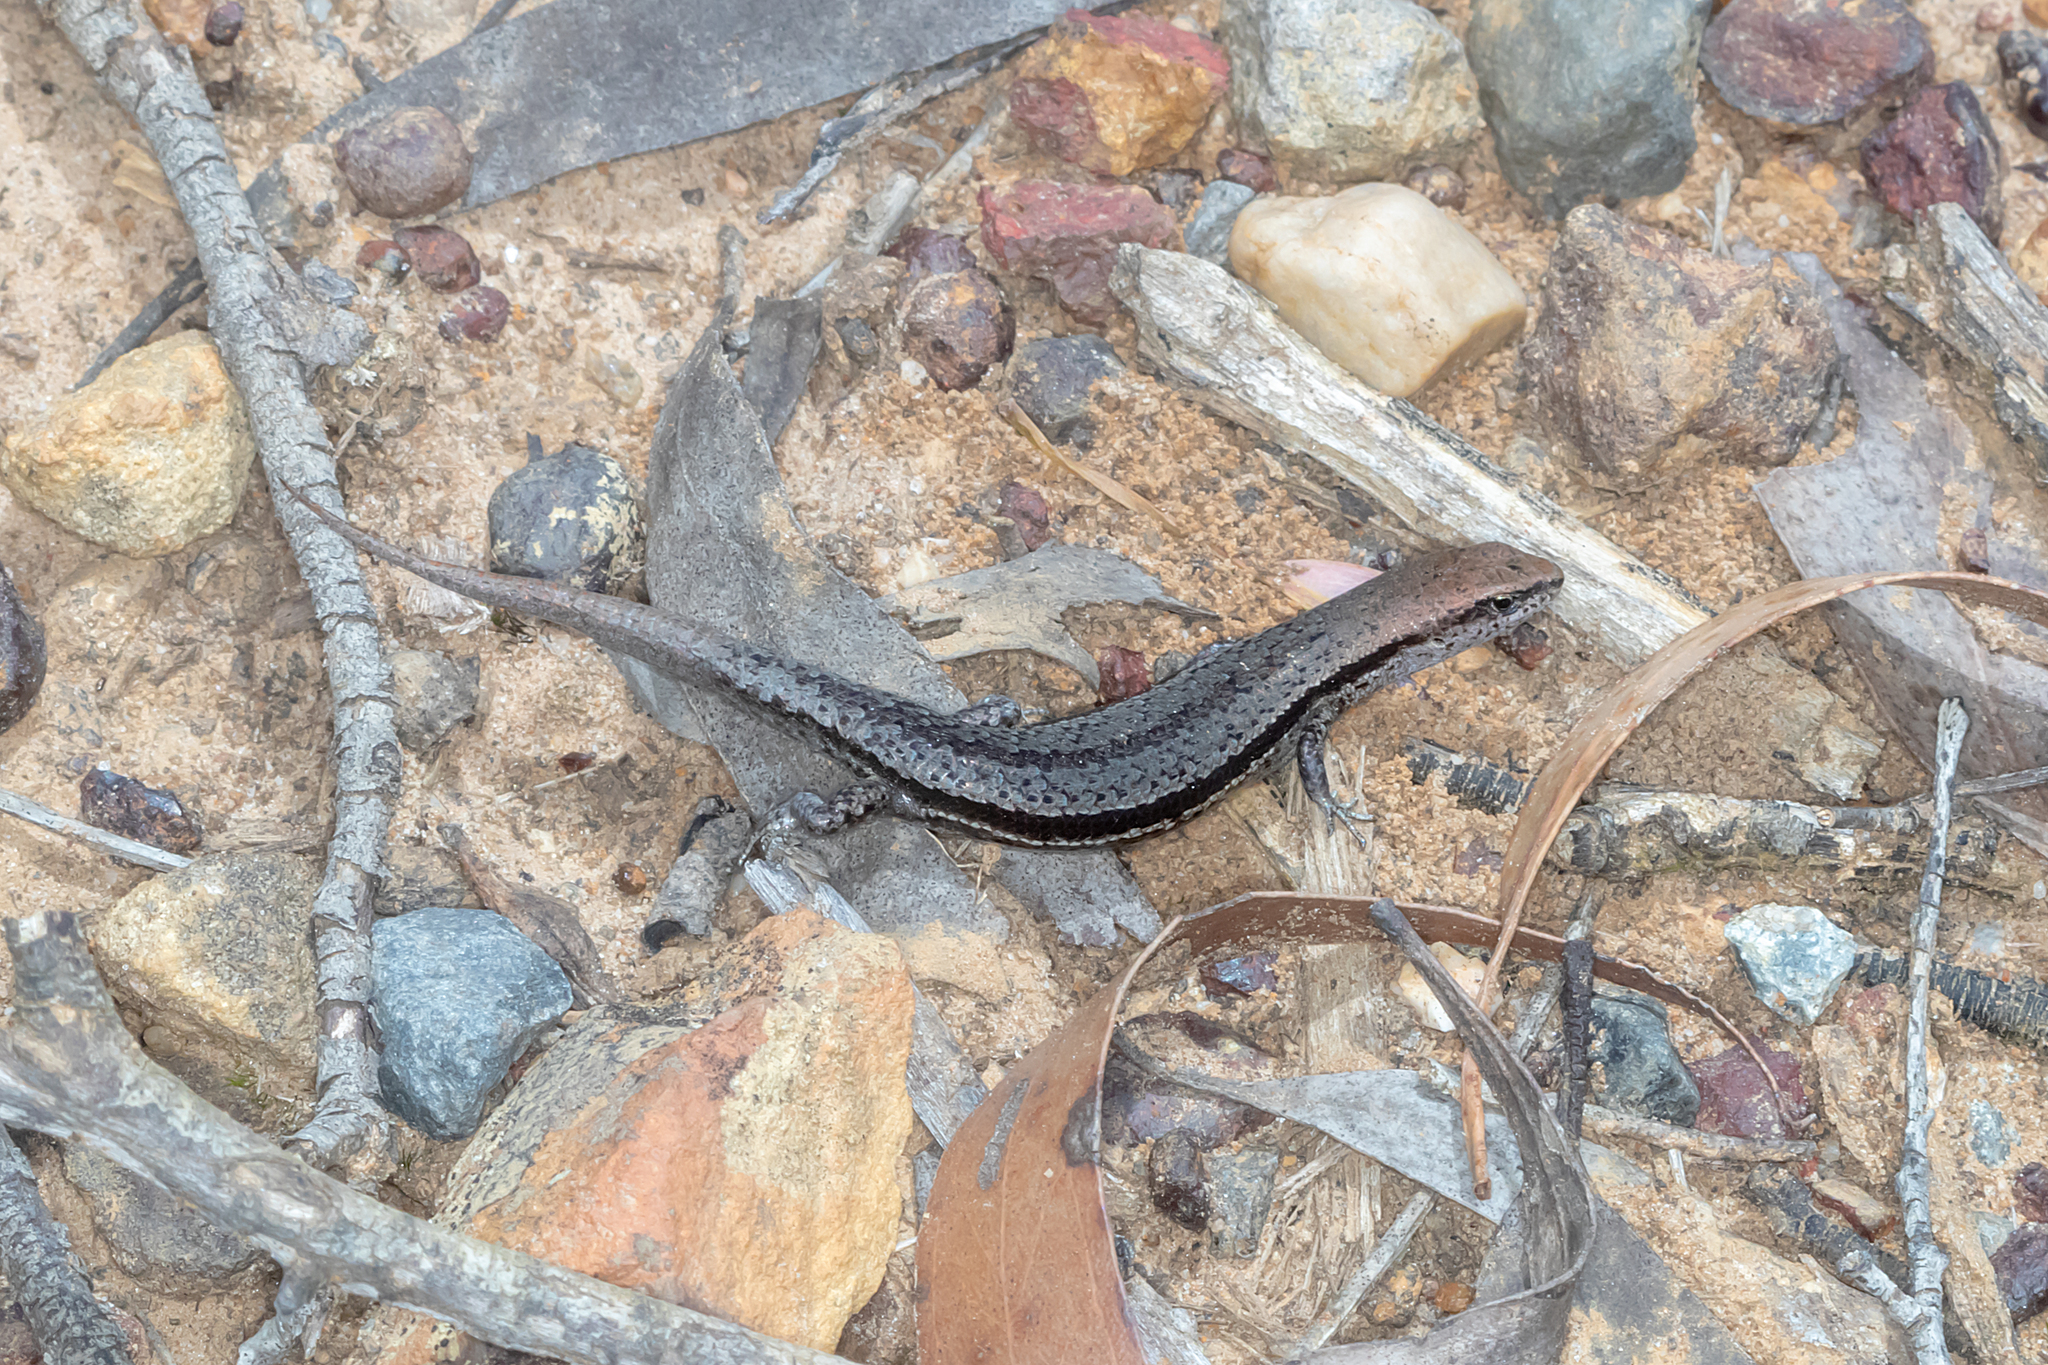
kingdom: Animalia
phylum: Chordata
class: Squamata
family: Scincidae
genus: Lampropholis
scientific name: Lampropholis guichenoti
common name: Garden skink
